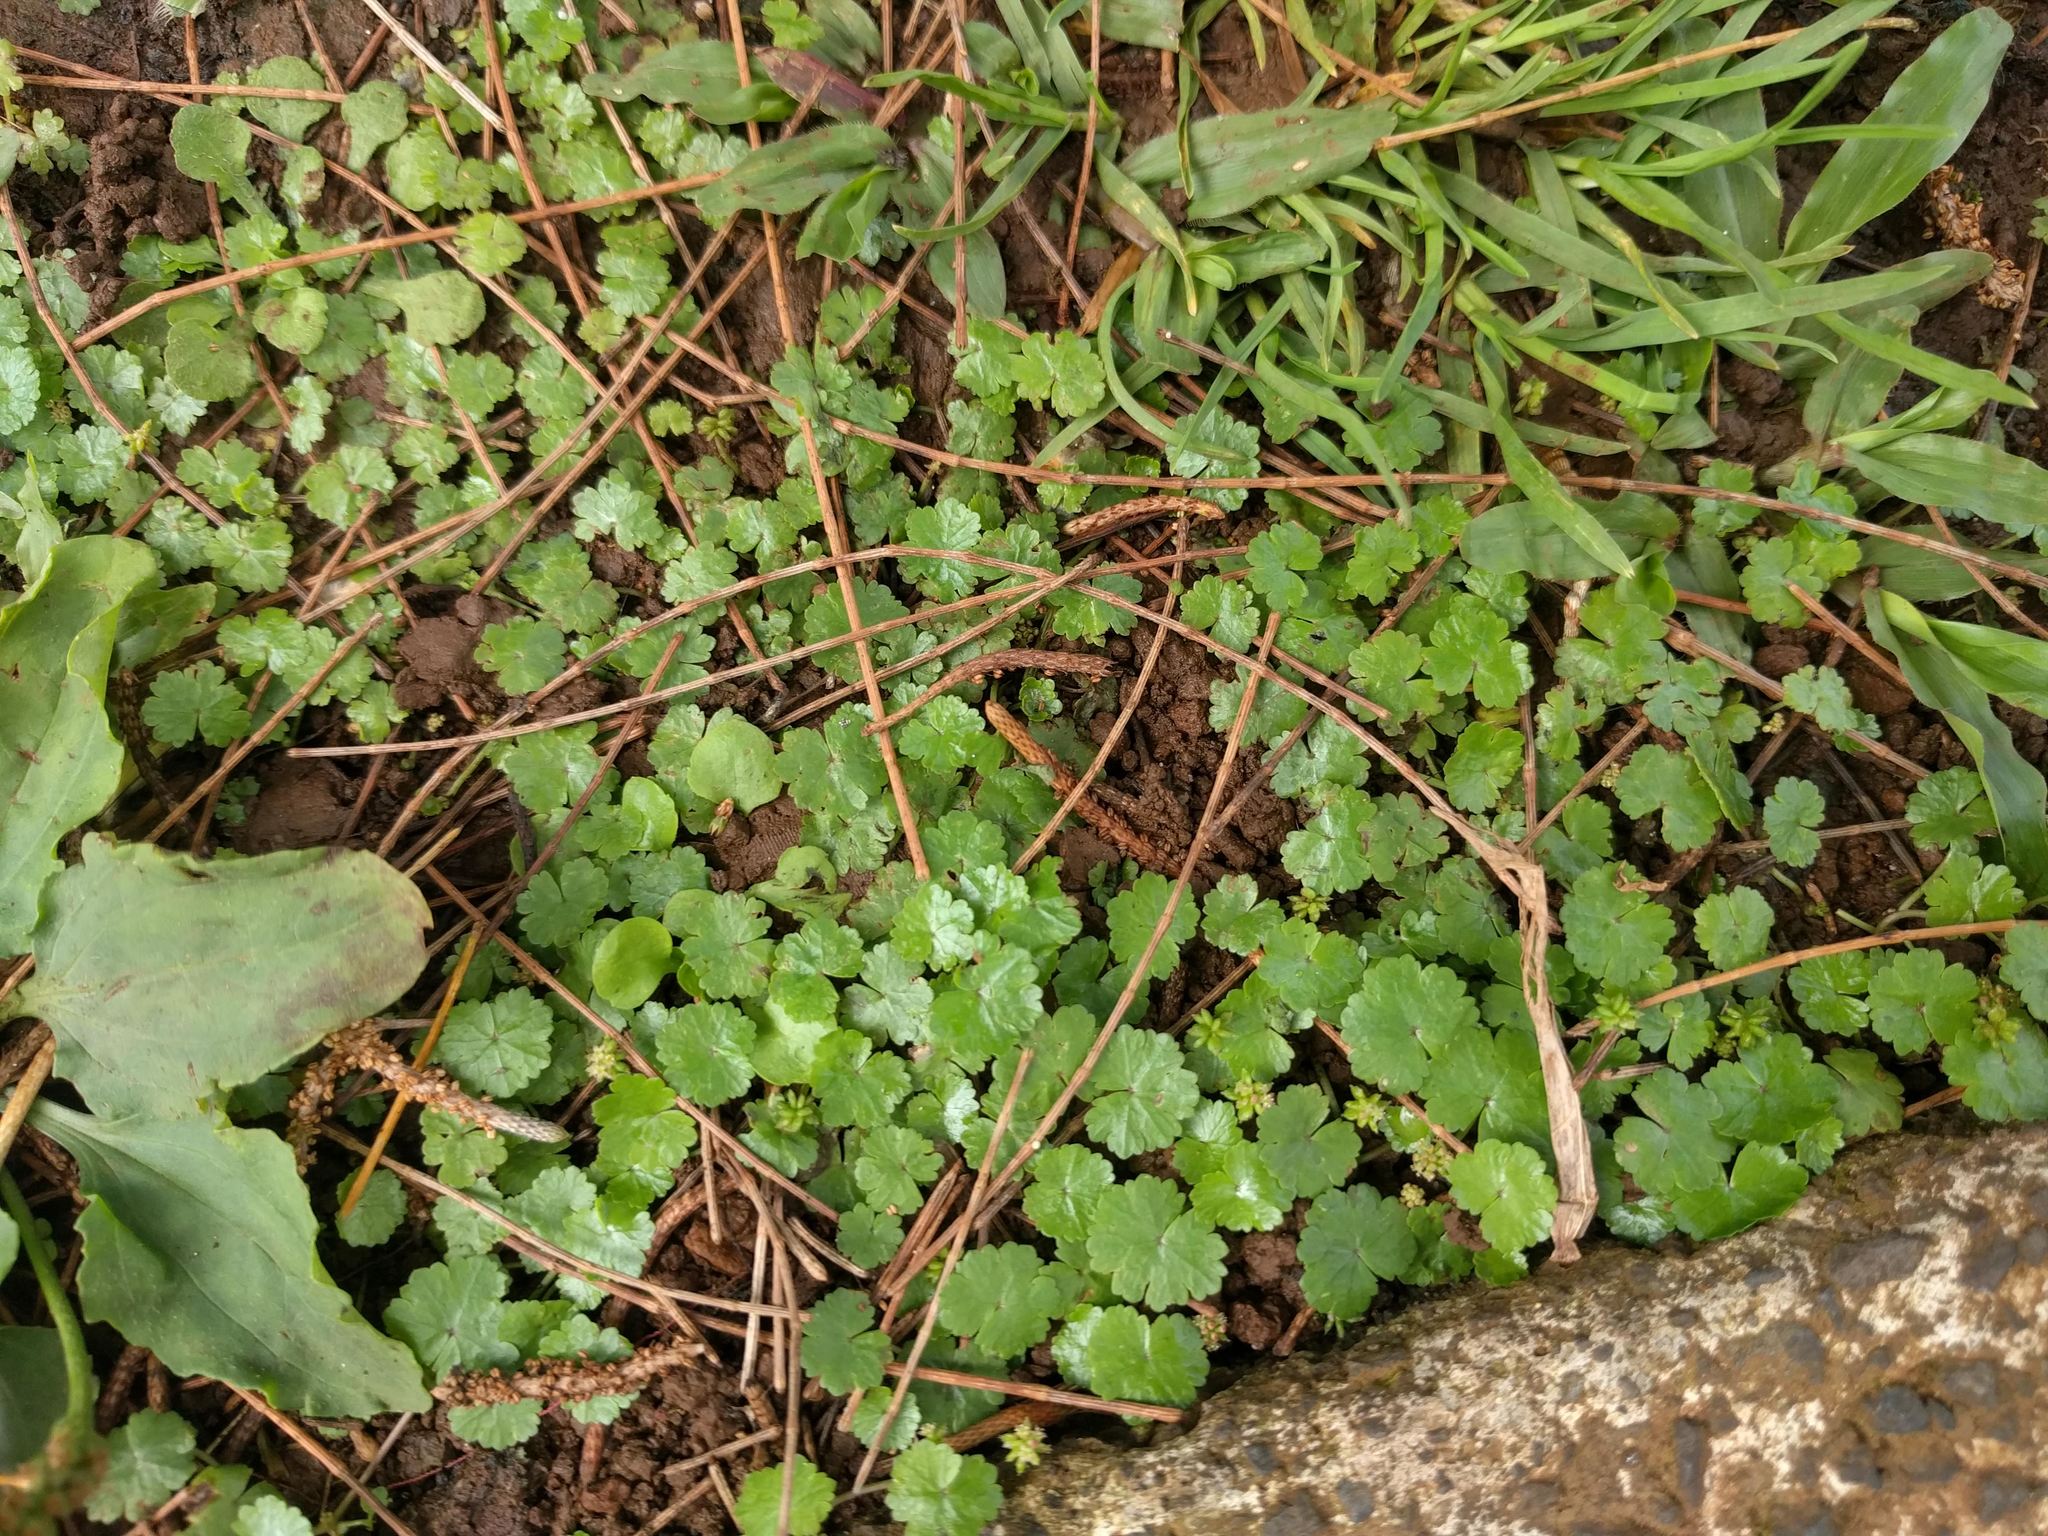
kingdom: Plantae
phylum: Tracheophyta
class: Magnoliopsida
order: Apiales
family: Araliaceae
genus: Hydrocotyle
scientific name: Hydrocotyle sibthorpioides
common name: Lawn marshpennywort
